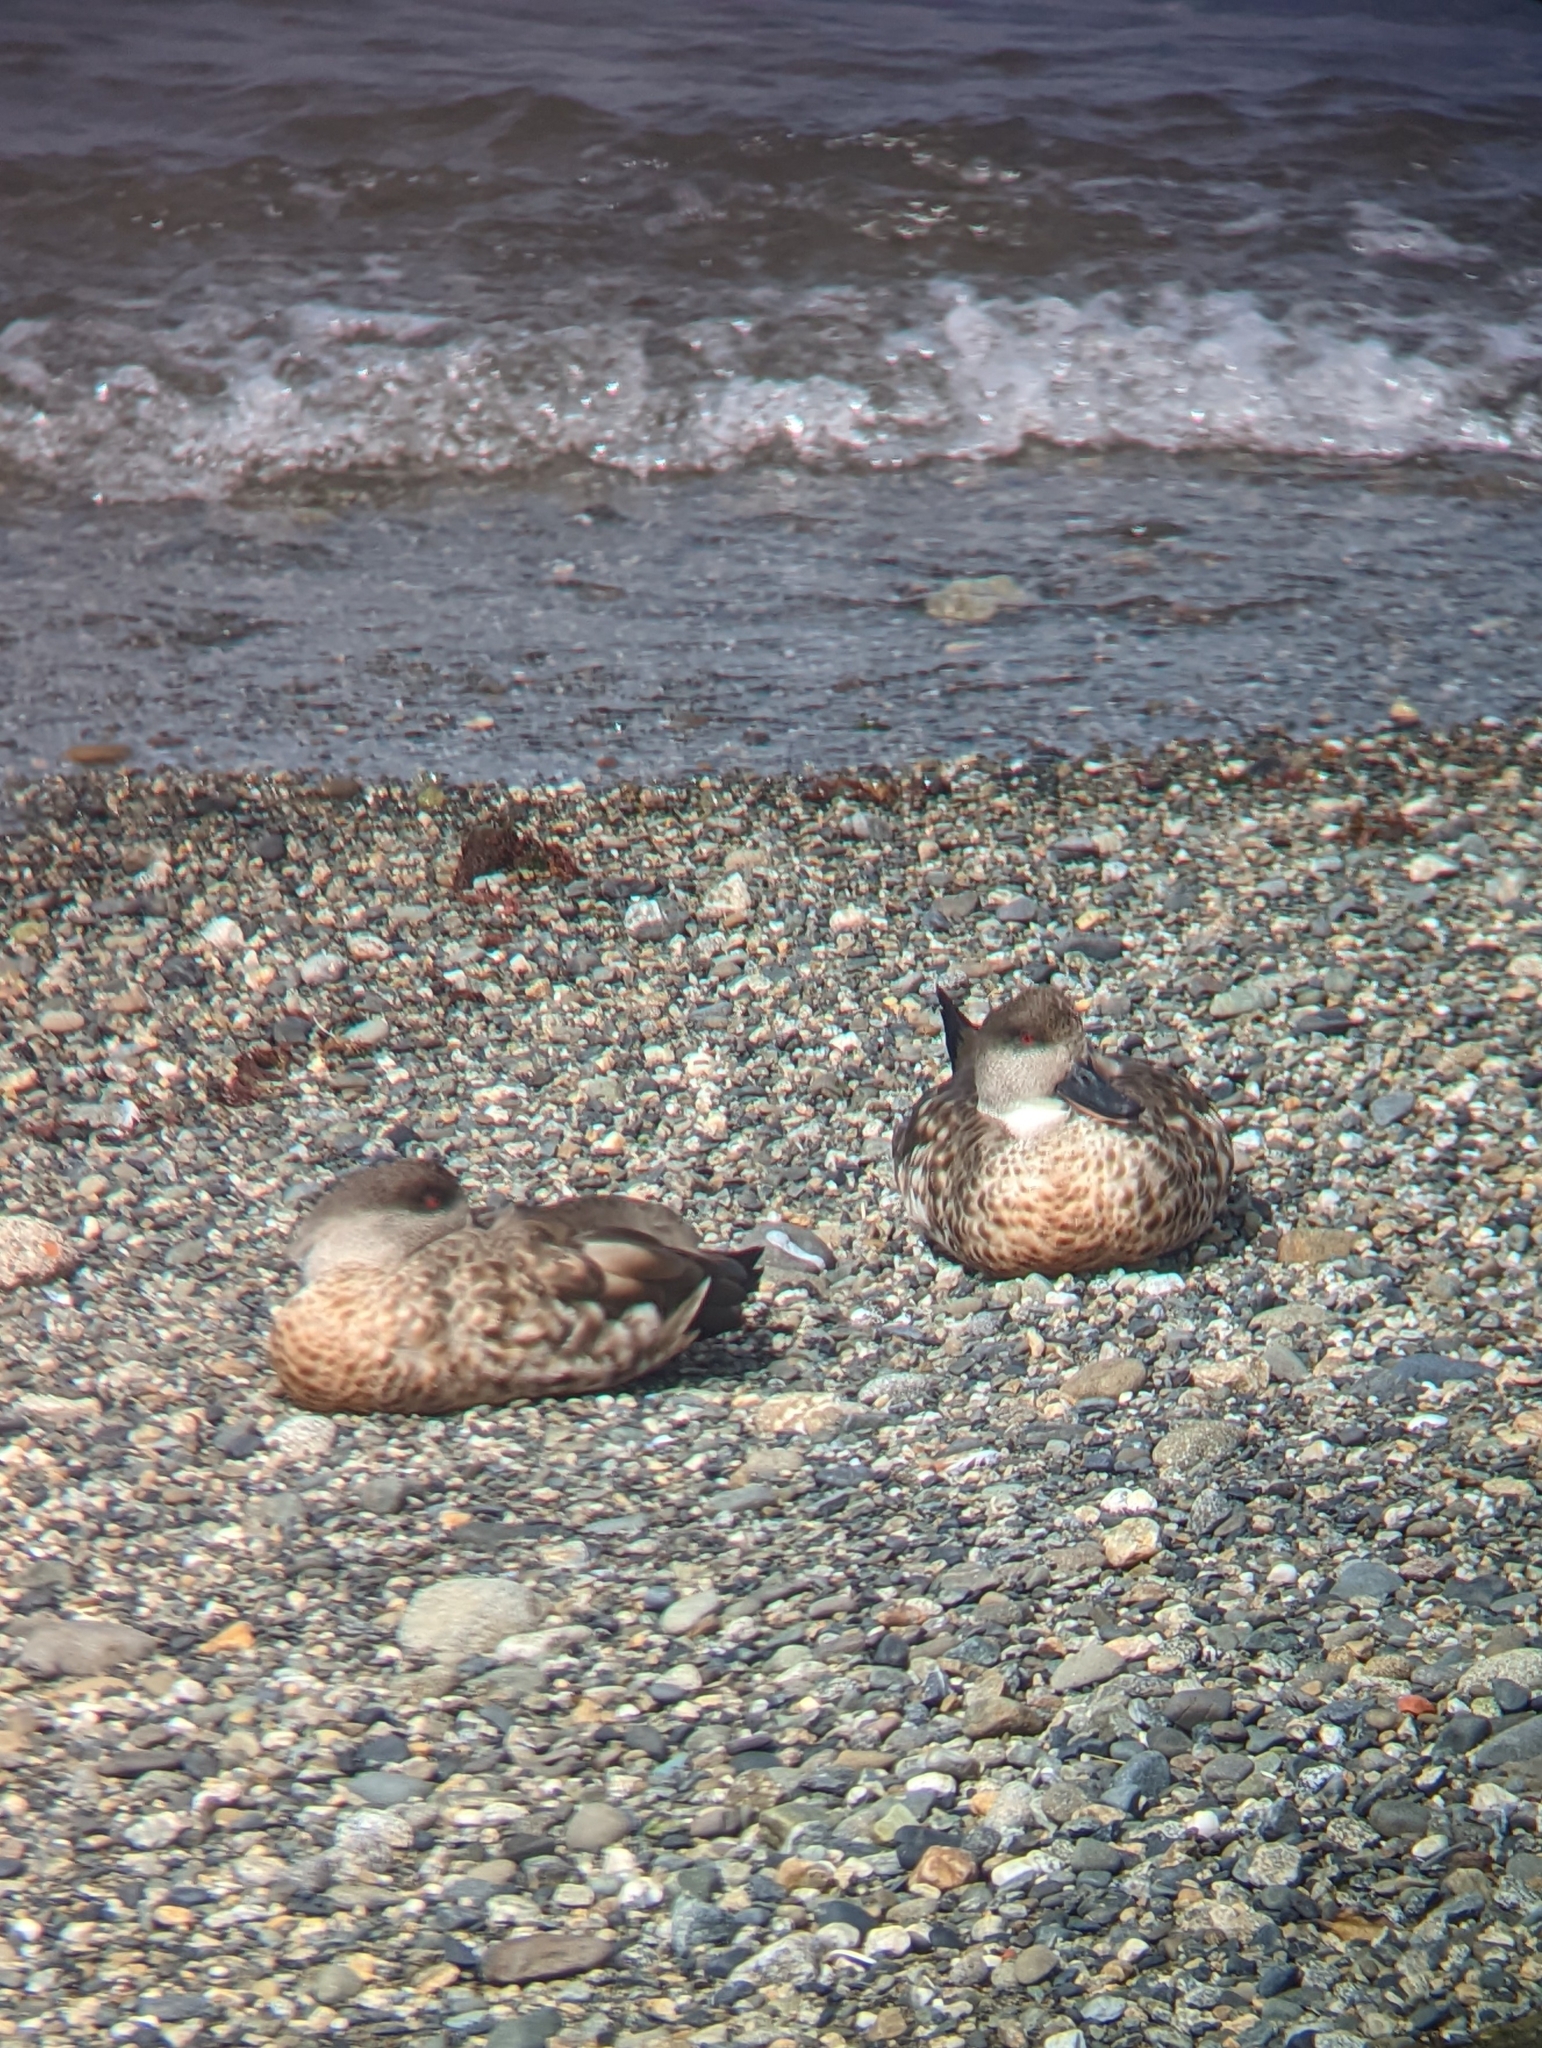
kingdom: Animalia
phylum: Chordata
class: Aves
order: Anseriformes
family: Anatidae
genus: Lophonetta
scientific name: Lophonetta specularioides
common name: Crested duck
